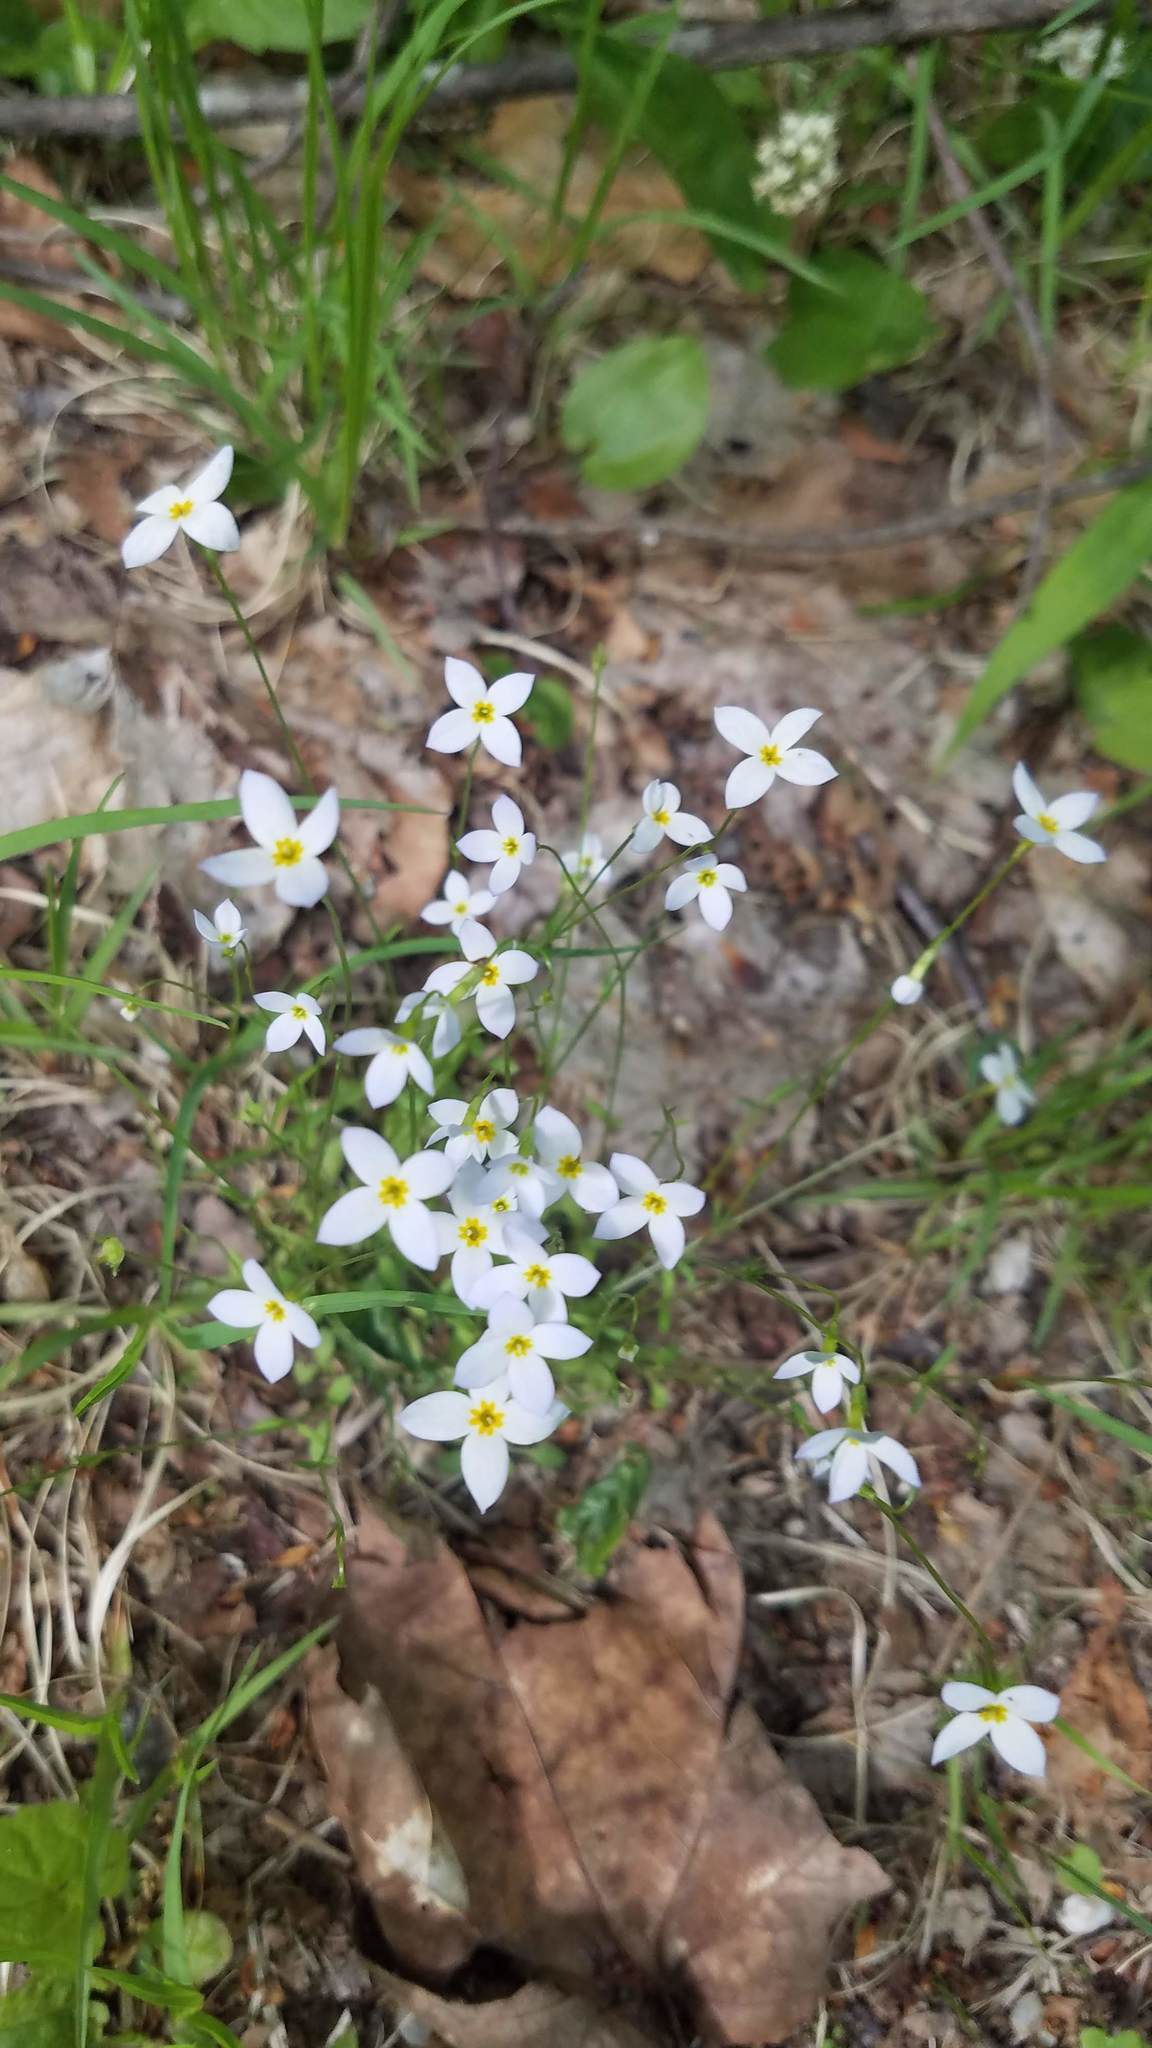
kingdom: Plantae
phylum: Tracheophyta
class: Magnoliopsida
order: Gentianales
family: Rubiaceae
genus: Houstonia
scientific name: Houstonia caerulea
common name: Bluets
